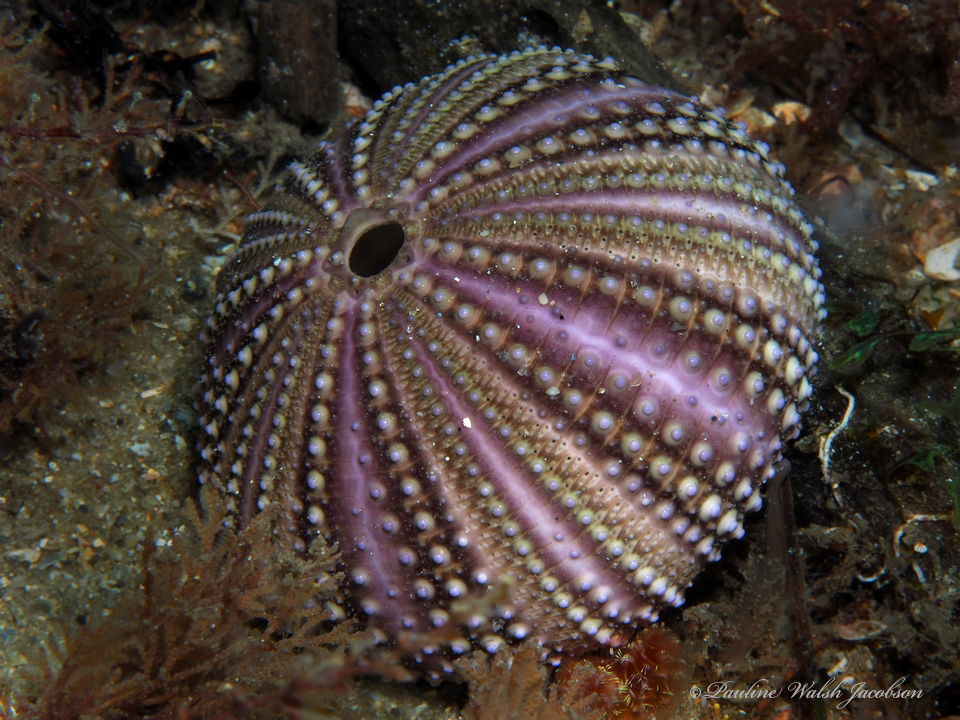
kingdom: Animalia
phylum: Echinodermata
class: Echinoidea
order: Camarodonta
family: Toxopneustidae
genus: Lytechinus
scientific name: Lytechinus variegatus
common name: Variegated urchin
